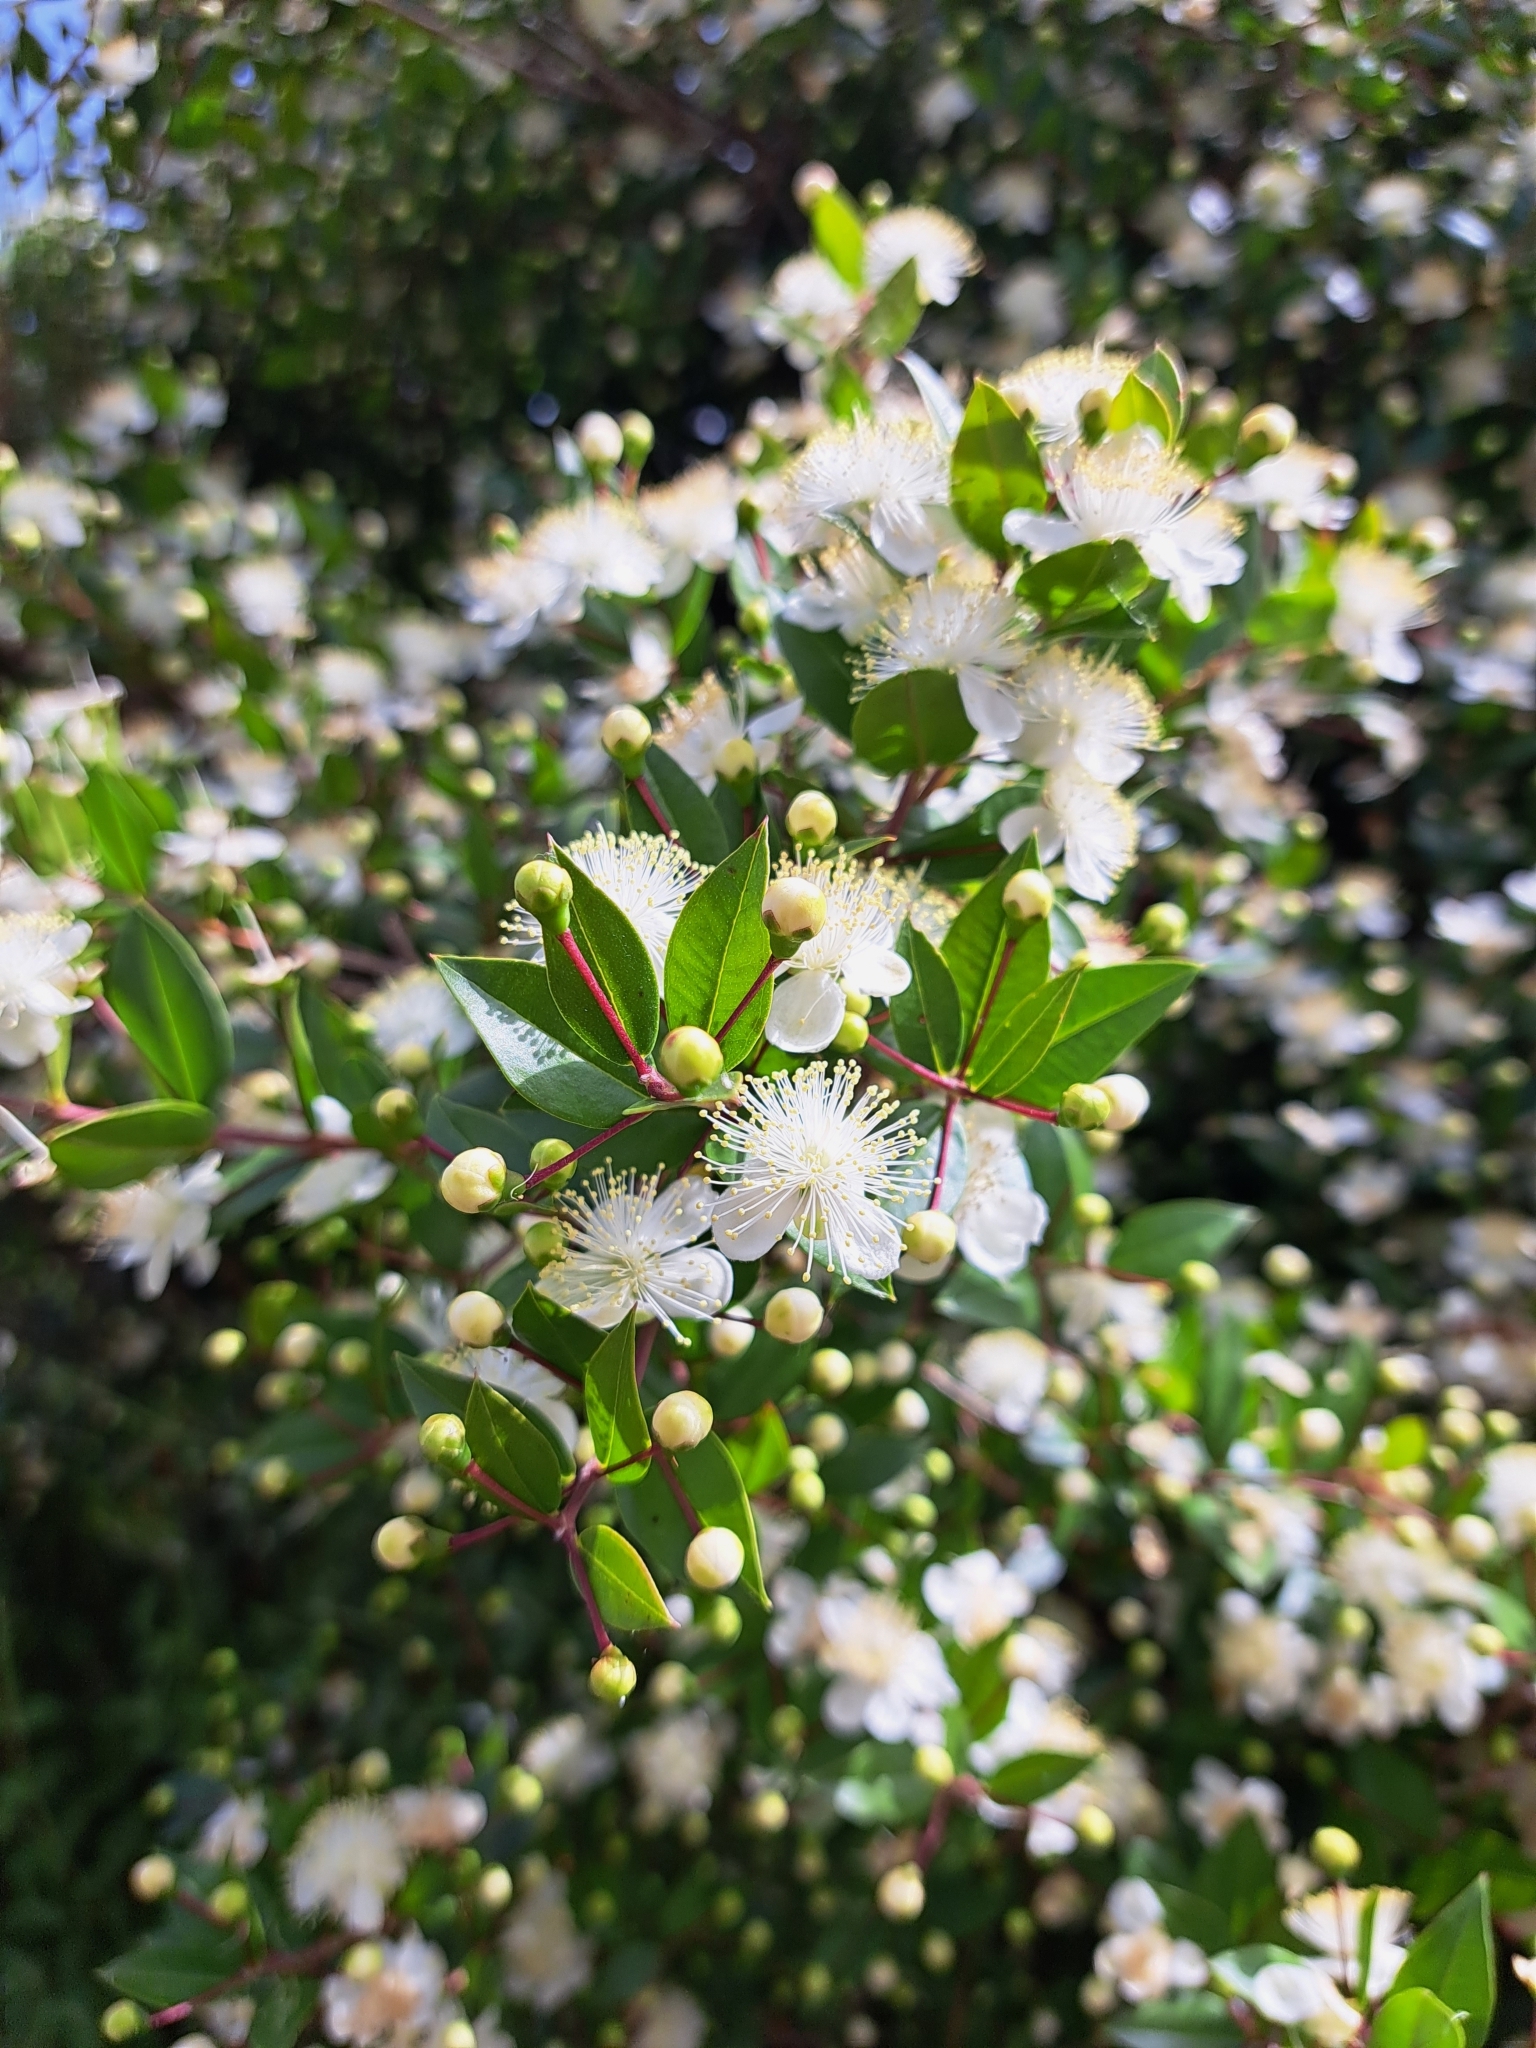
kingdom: Plantae
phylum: Tracheophyta
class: Magnoliopsida
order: Myrtales
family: Myrtaceae
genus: Myrtus
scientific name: Myrtus communis
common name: Myrtle
